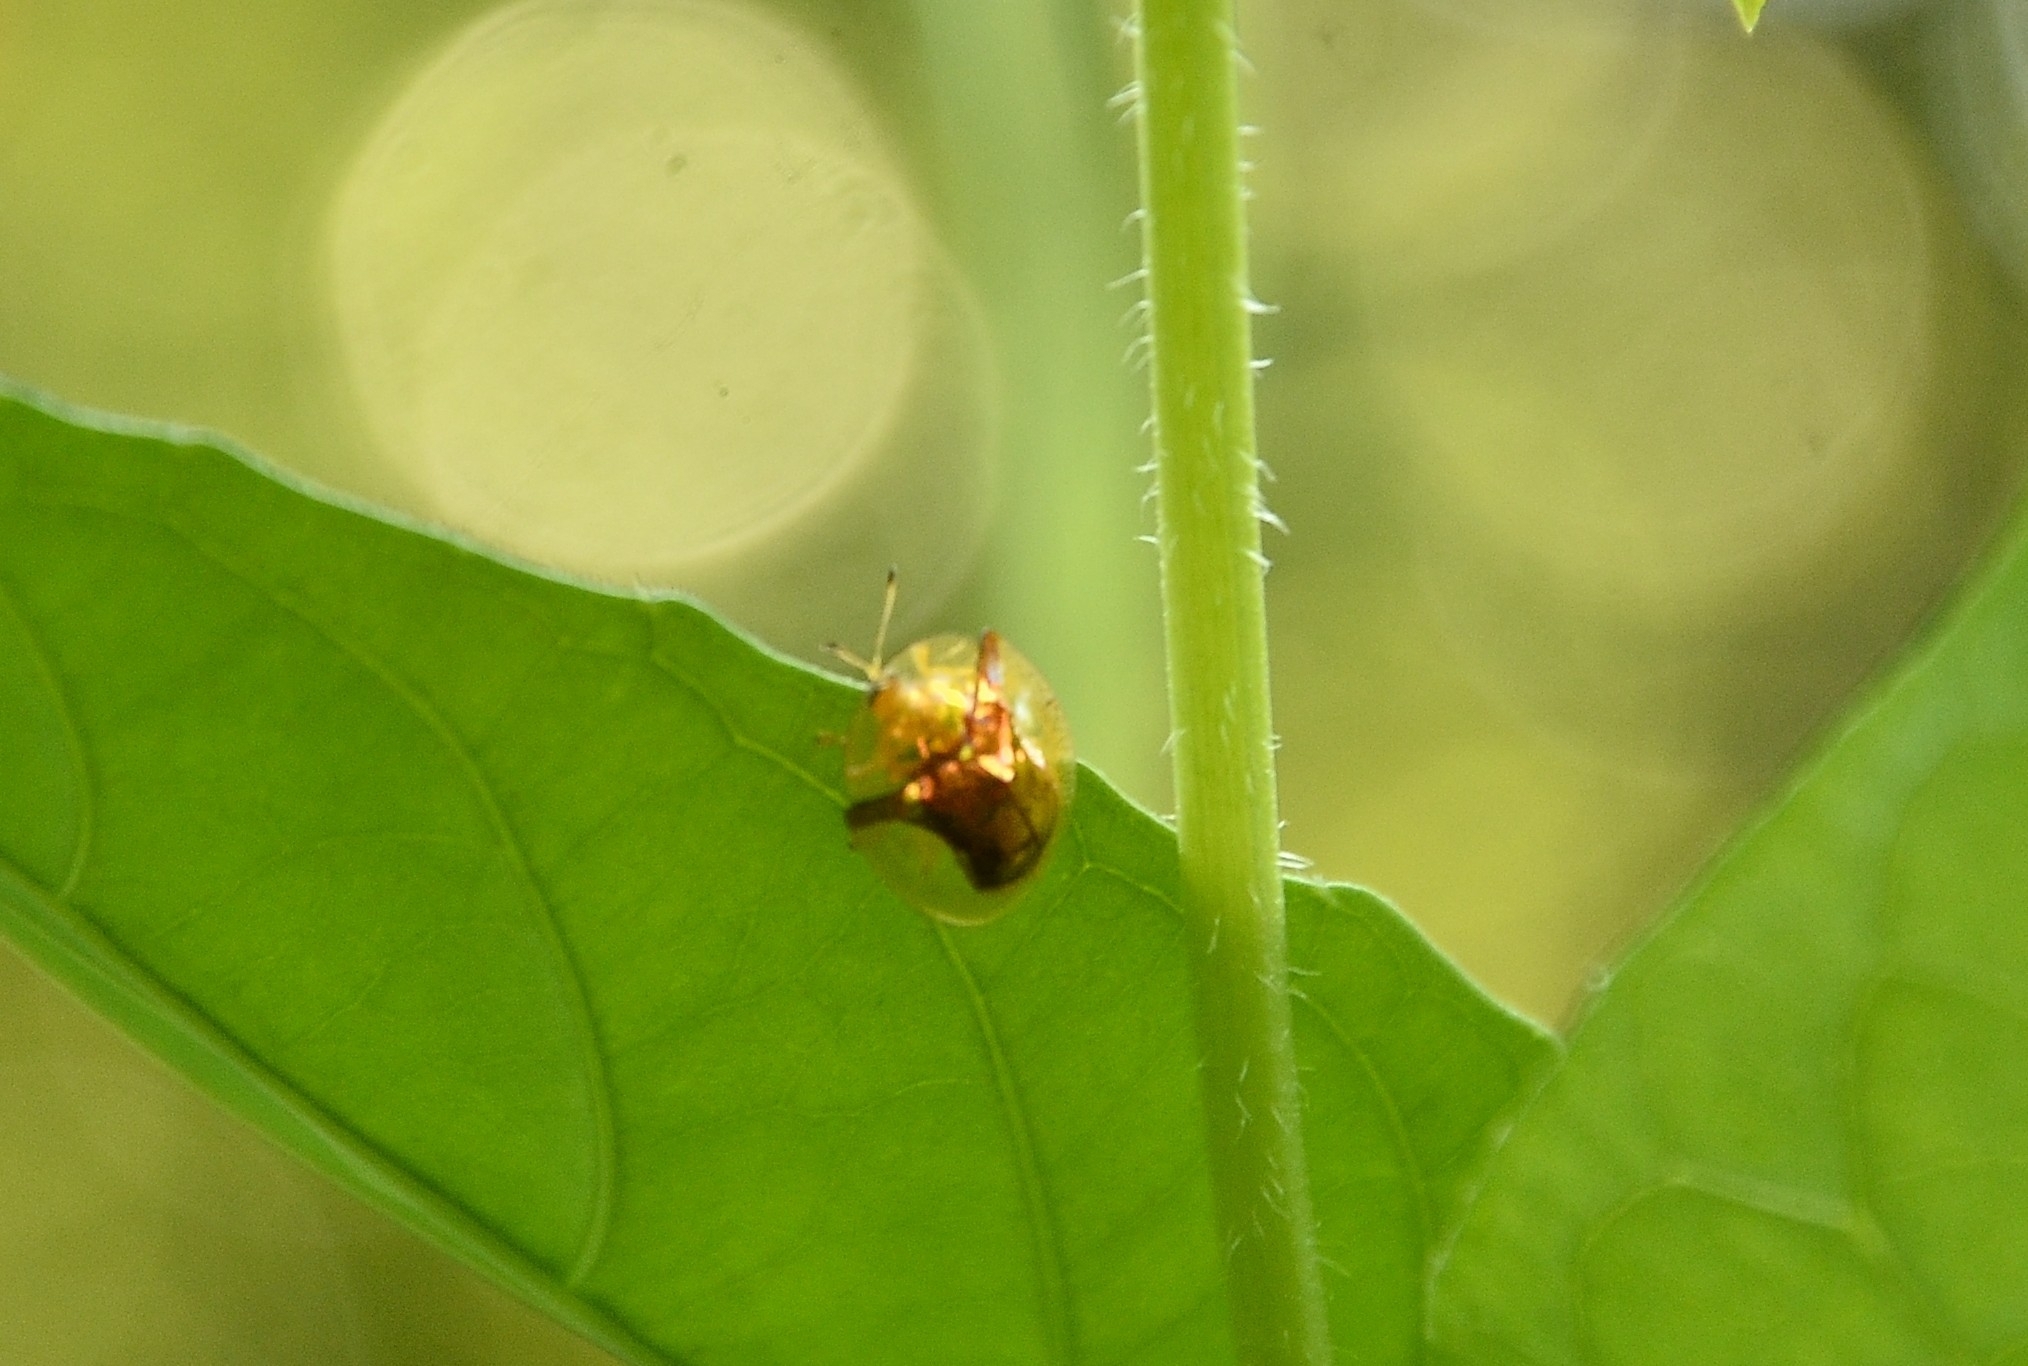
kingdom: Animalia
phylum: Arthropoda
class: Insecta
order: Coleoptera
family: Chrysomelidae
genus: Aspidimorpha
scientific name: Aspidimorpha furcata
